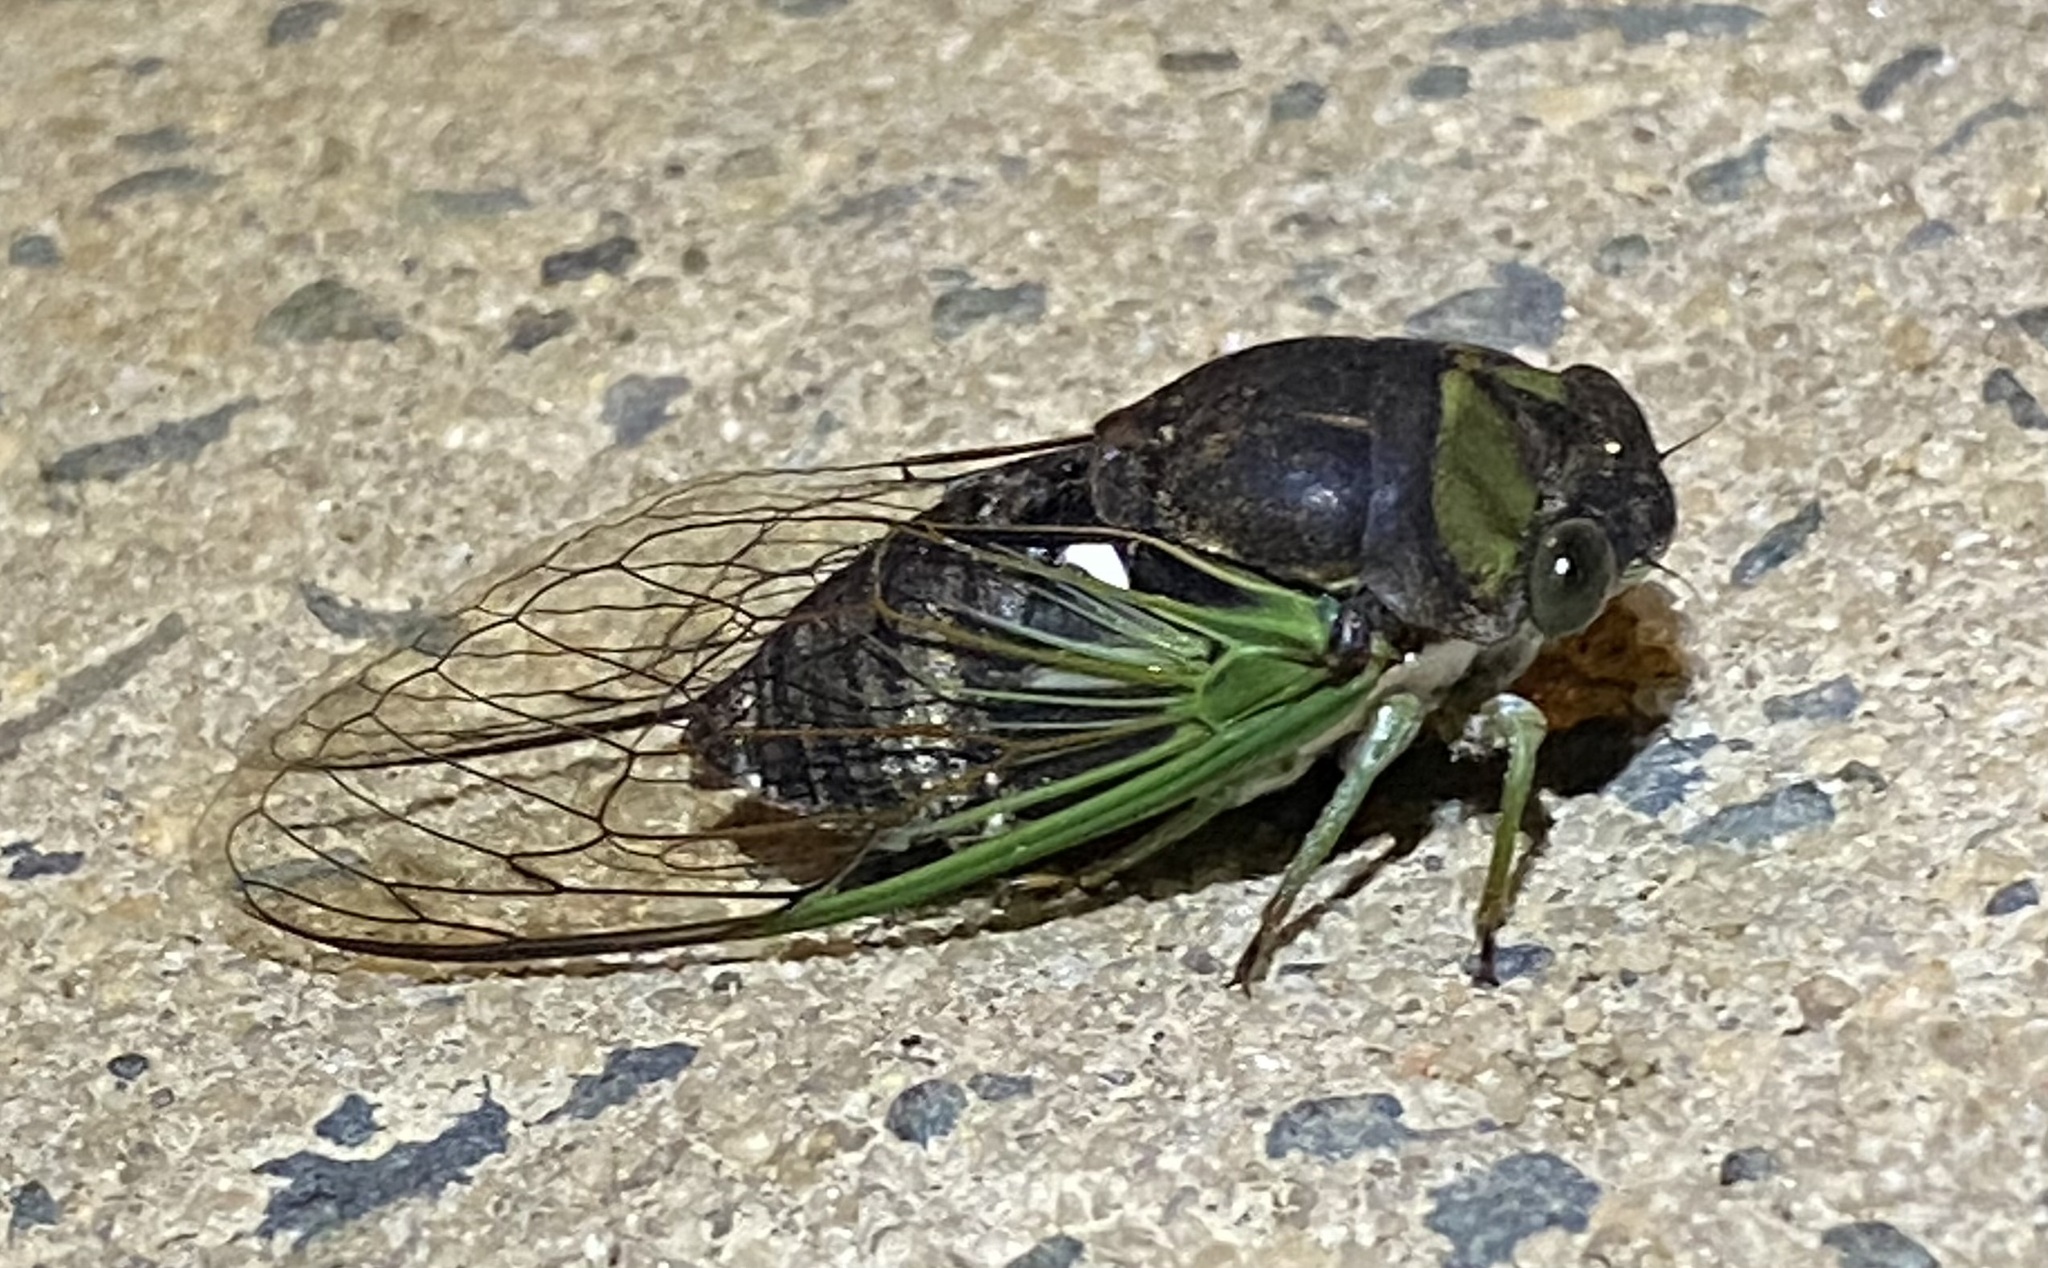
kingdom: Animalia
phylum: Arthropoda
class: Insecta
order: Hemiptera
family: Cicadidae
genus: Neotibicen
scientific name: Neotibicen tibicen
